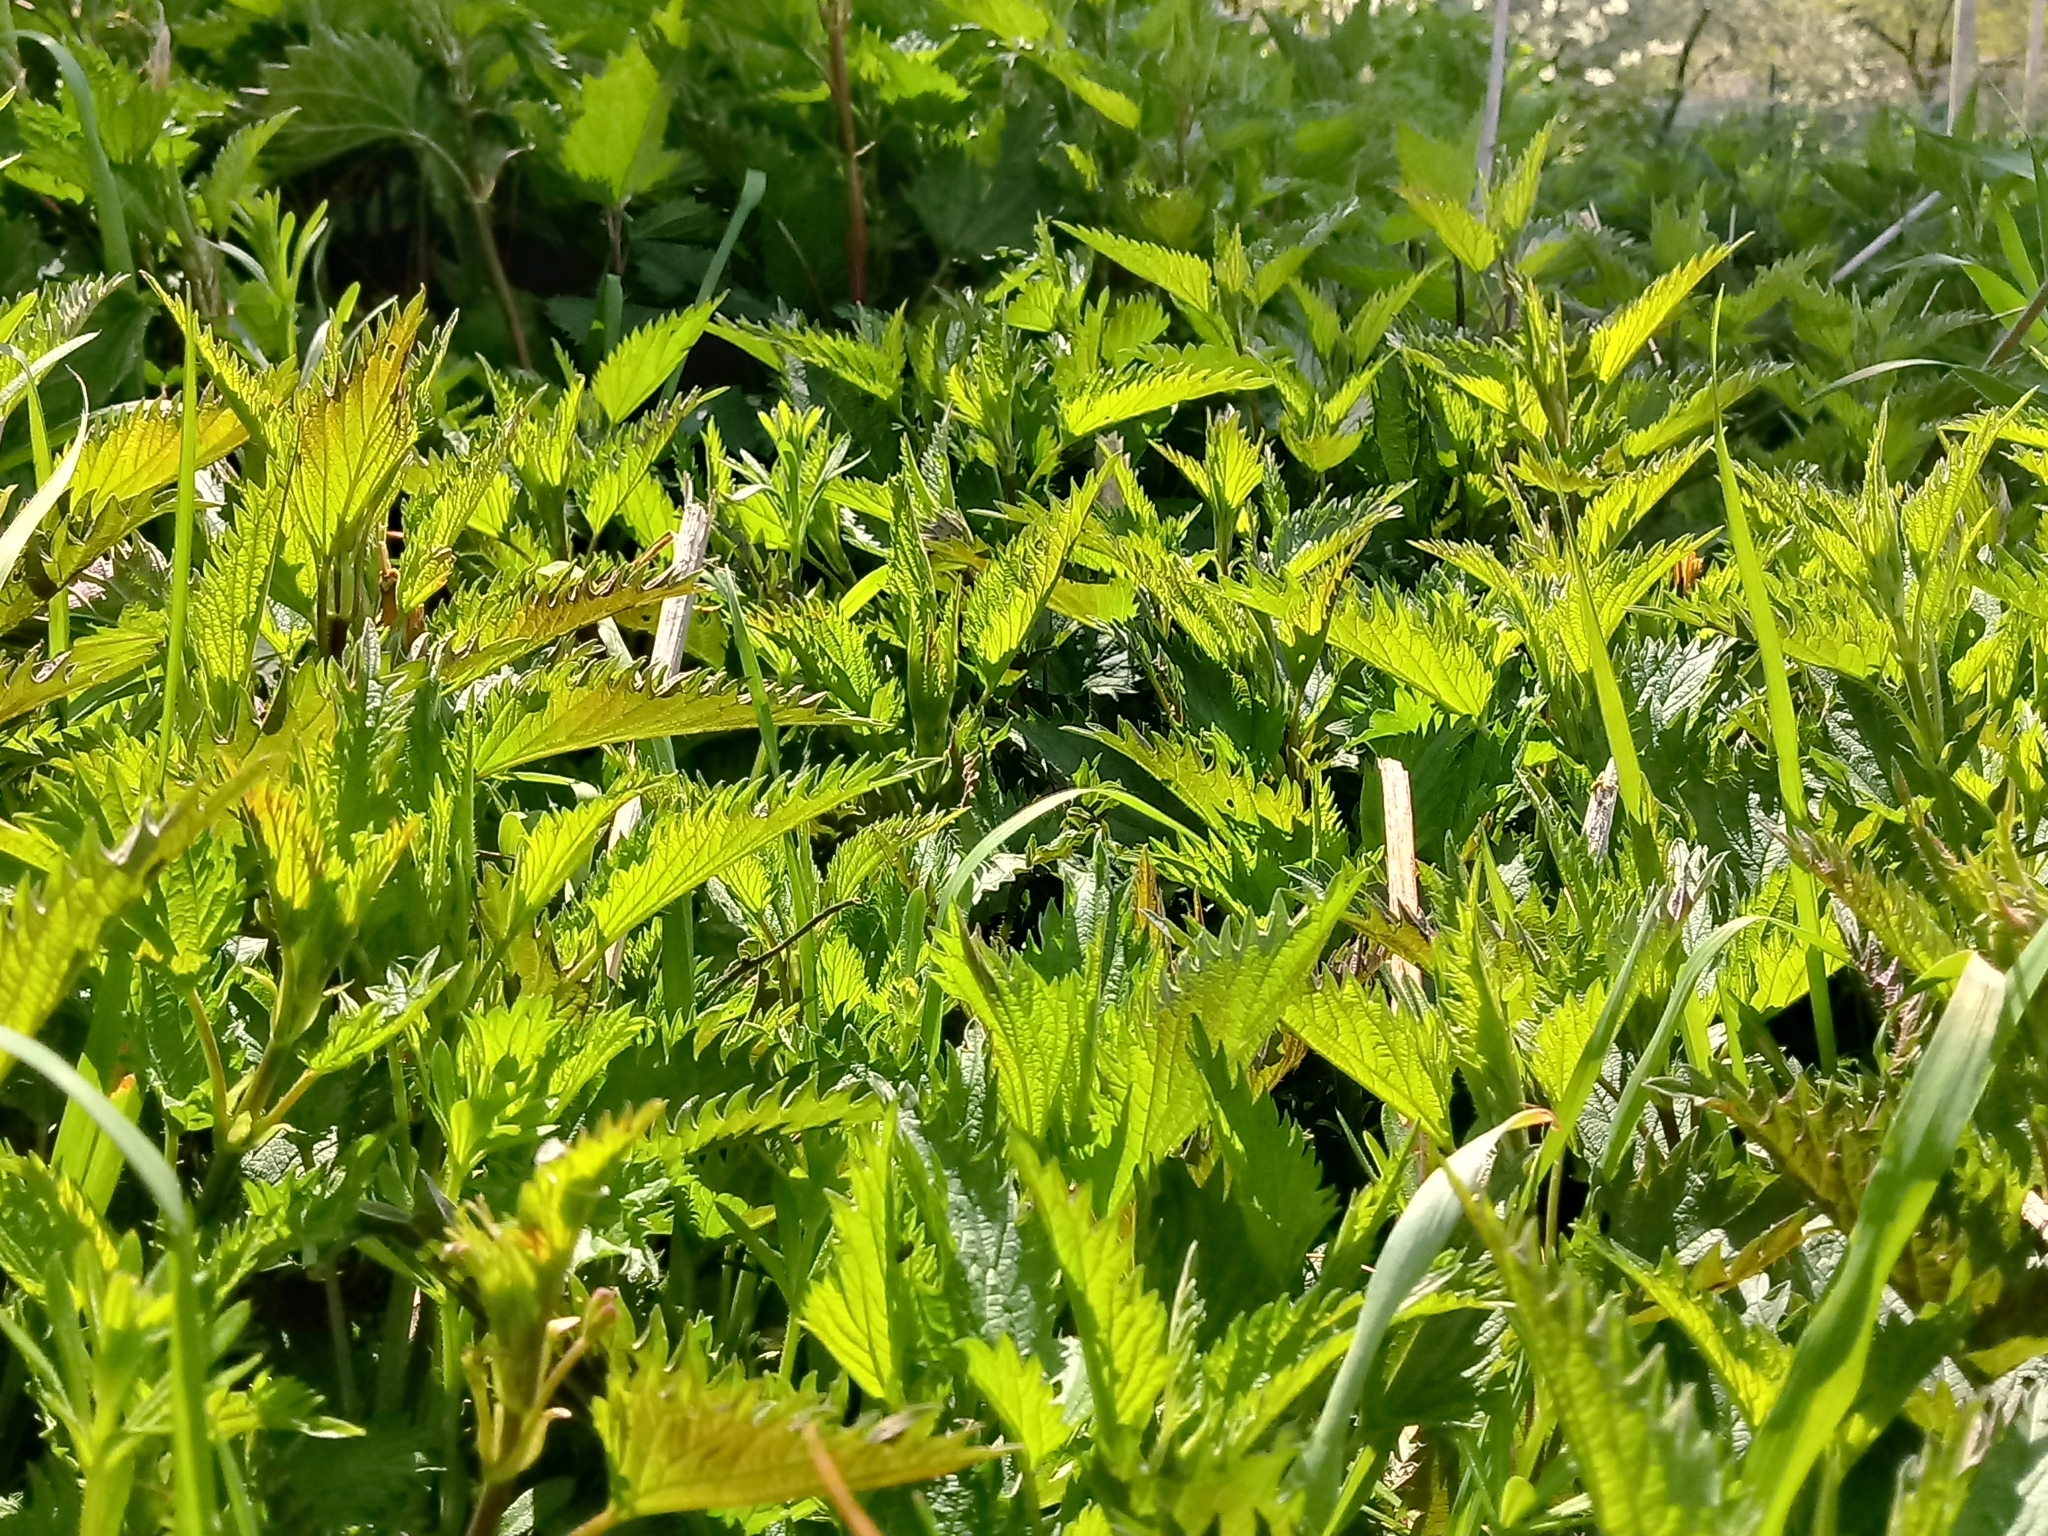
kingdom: Plantae
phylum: Tracheophyta
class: Magnoliopsida
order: Rosales
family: Urticaceae
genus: Urtica
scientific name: Urtica dioica
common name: Common nettle
